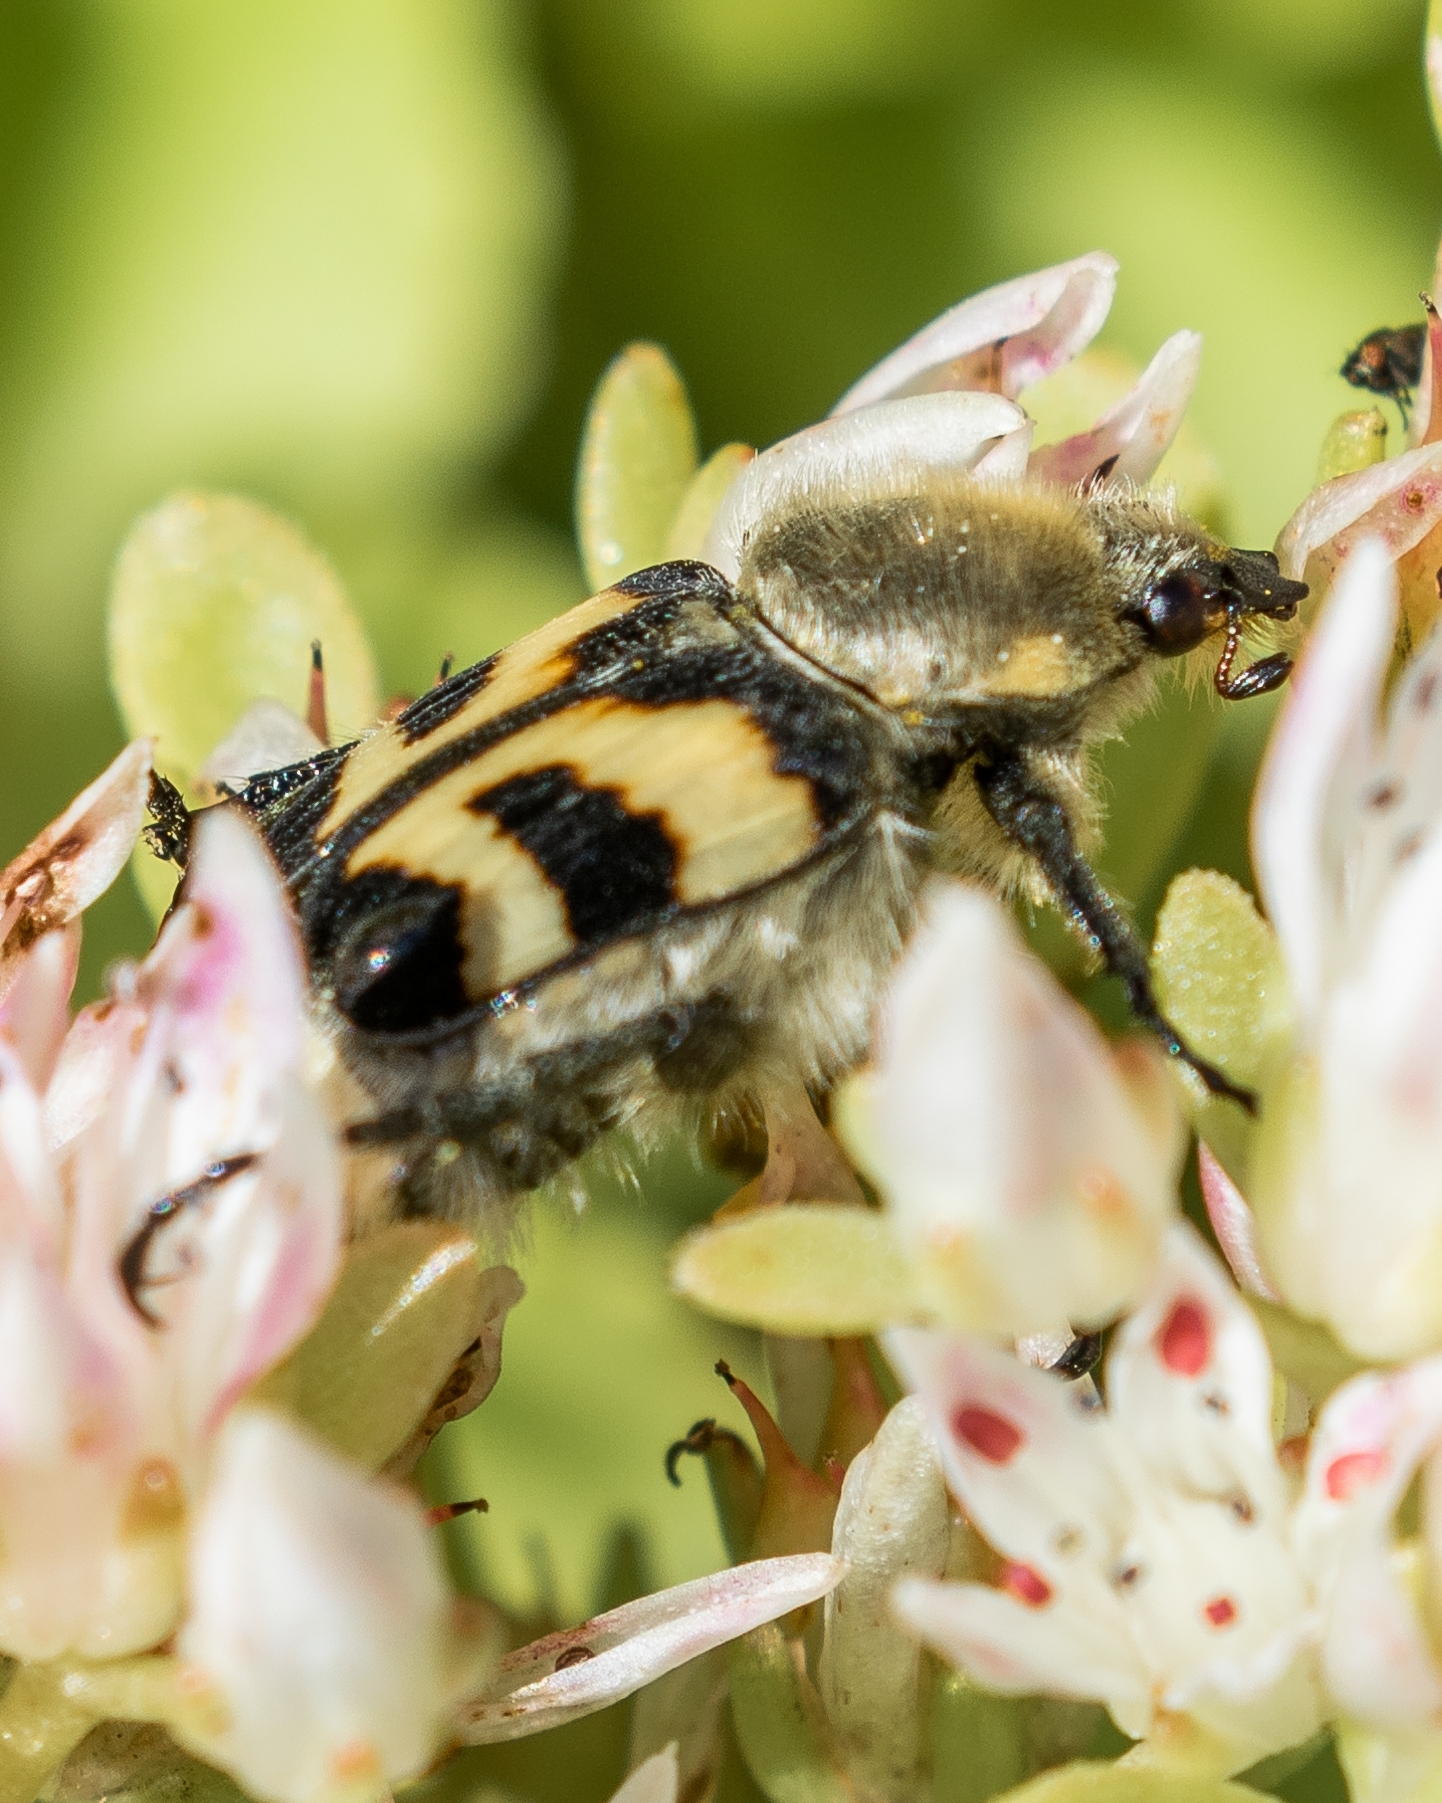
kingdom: Animalia
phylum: Arthropoda
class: Insecta
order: Coleoptera
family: Scarabaeidae
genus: Trichius
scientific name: Trichius fasciatus
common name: Bee beetle
